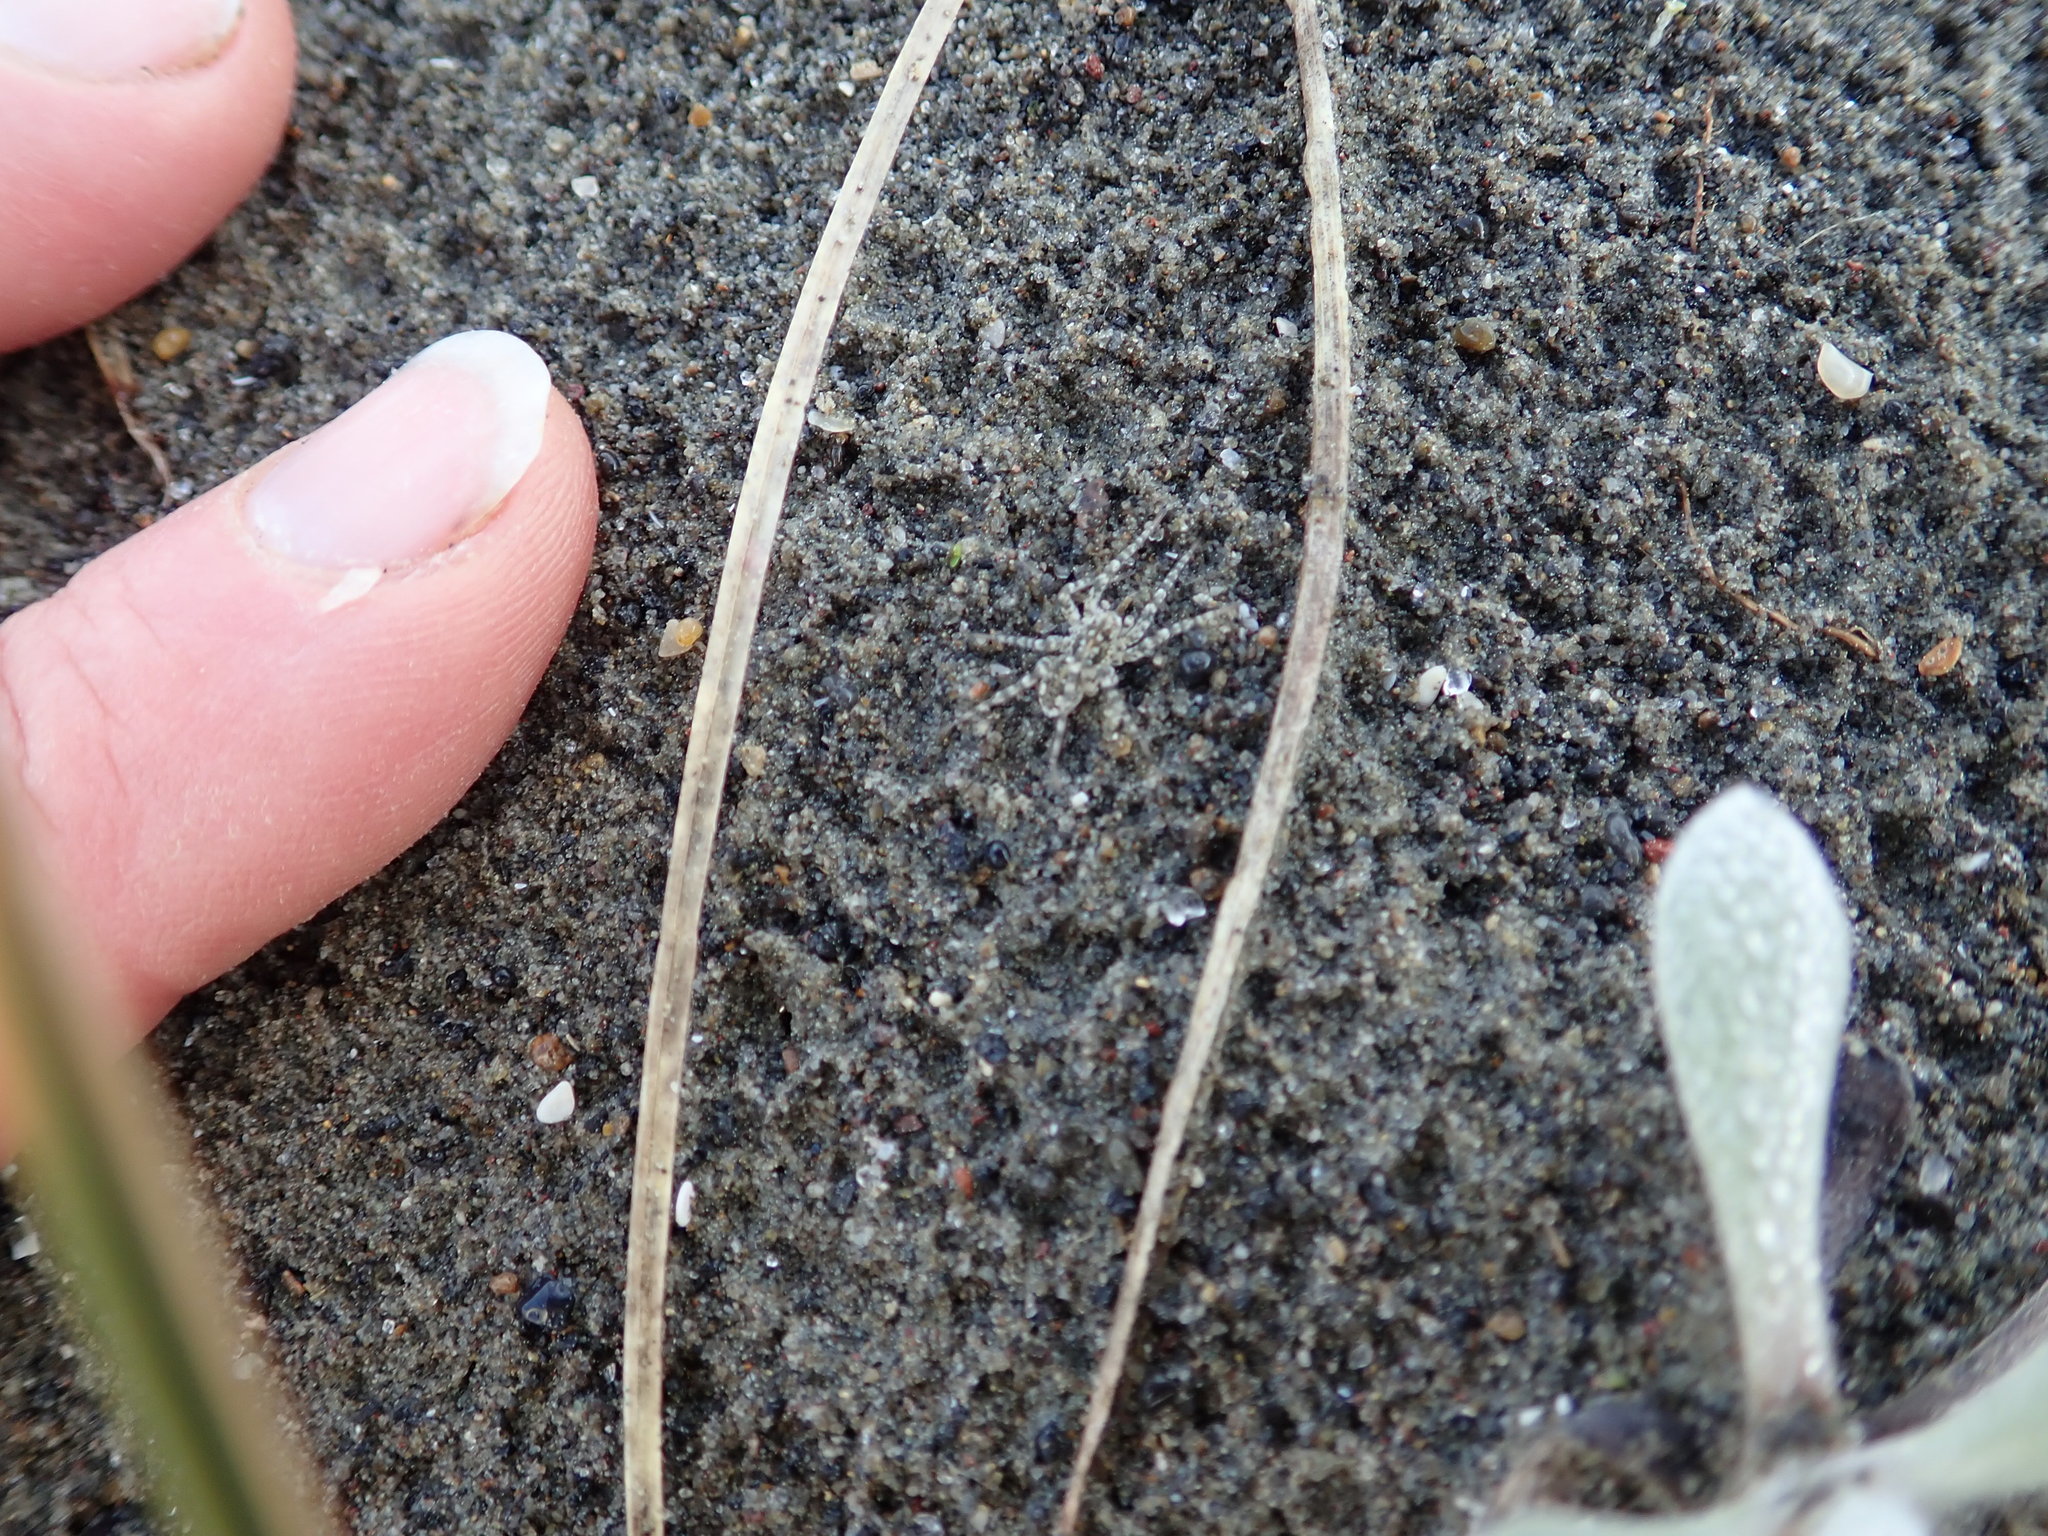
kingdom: Animalia
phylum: Arthropoda
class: Arachnida
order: Araneae
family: Lycosidae
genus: Anoteropsis
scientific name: Anoteropsis litoralis
